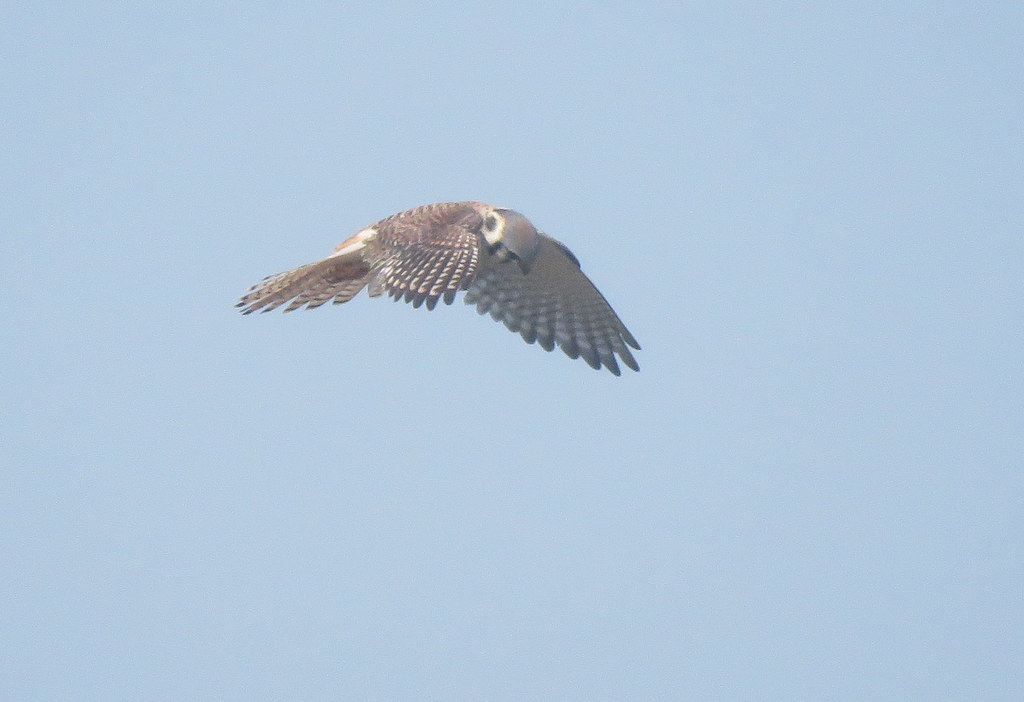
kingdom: Animalia
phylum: Chordata
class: Aves
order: Falconiformes
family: Falconidae
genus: Falco
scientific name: Falco sparverius
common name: American kestrel
